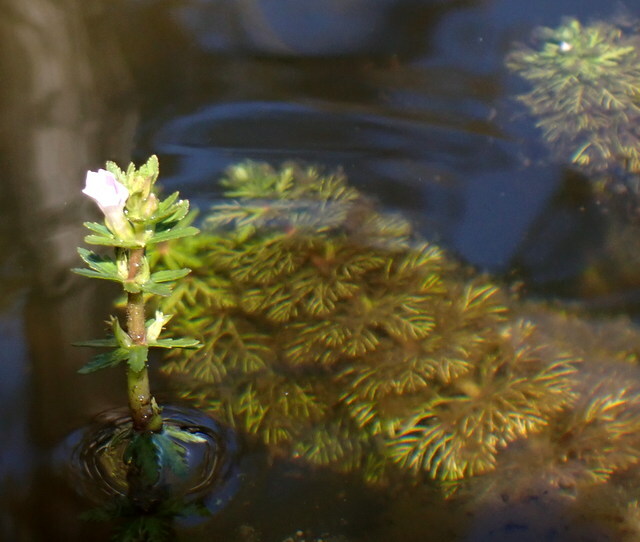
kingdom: Plantae
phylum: Tracheophyta
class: Magnoliopsida
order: Lamiales
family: Plantaginaceae
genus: Limnophila
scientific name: Limnophila sessiliflora
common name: Asian marshweed
